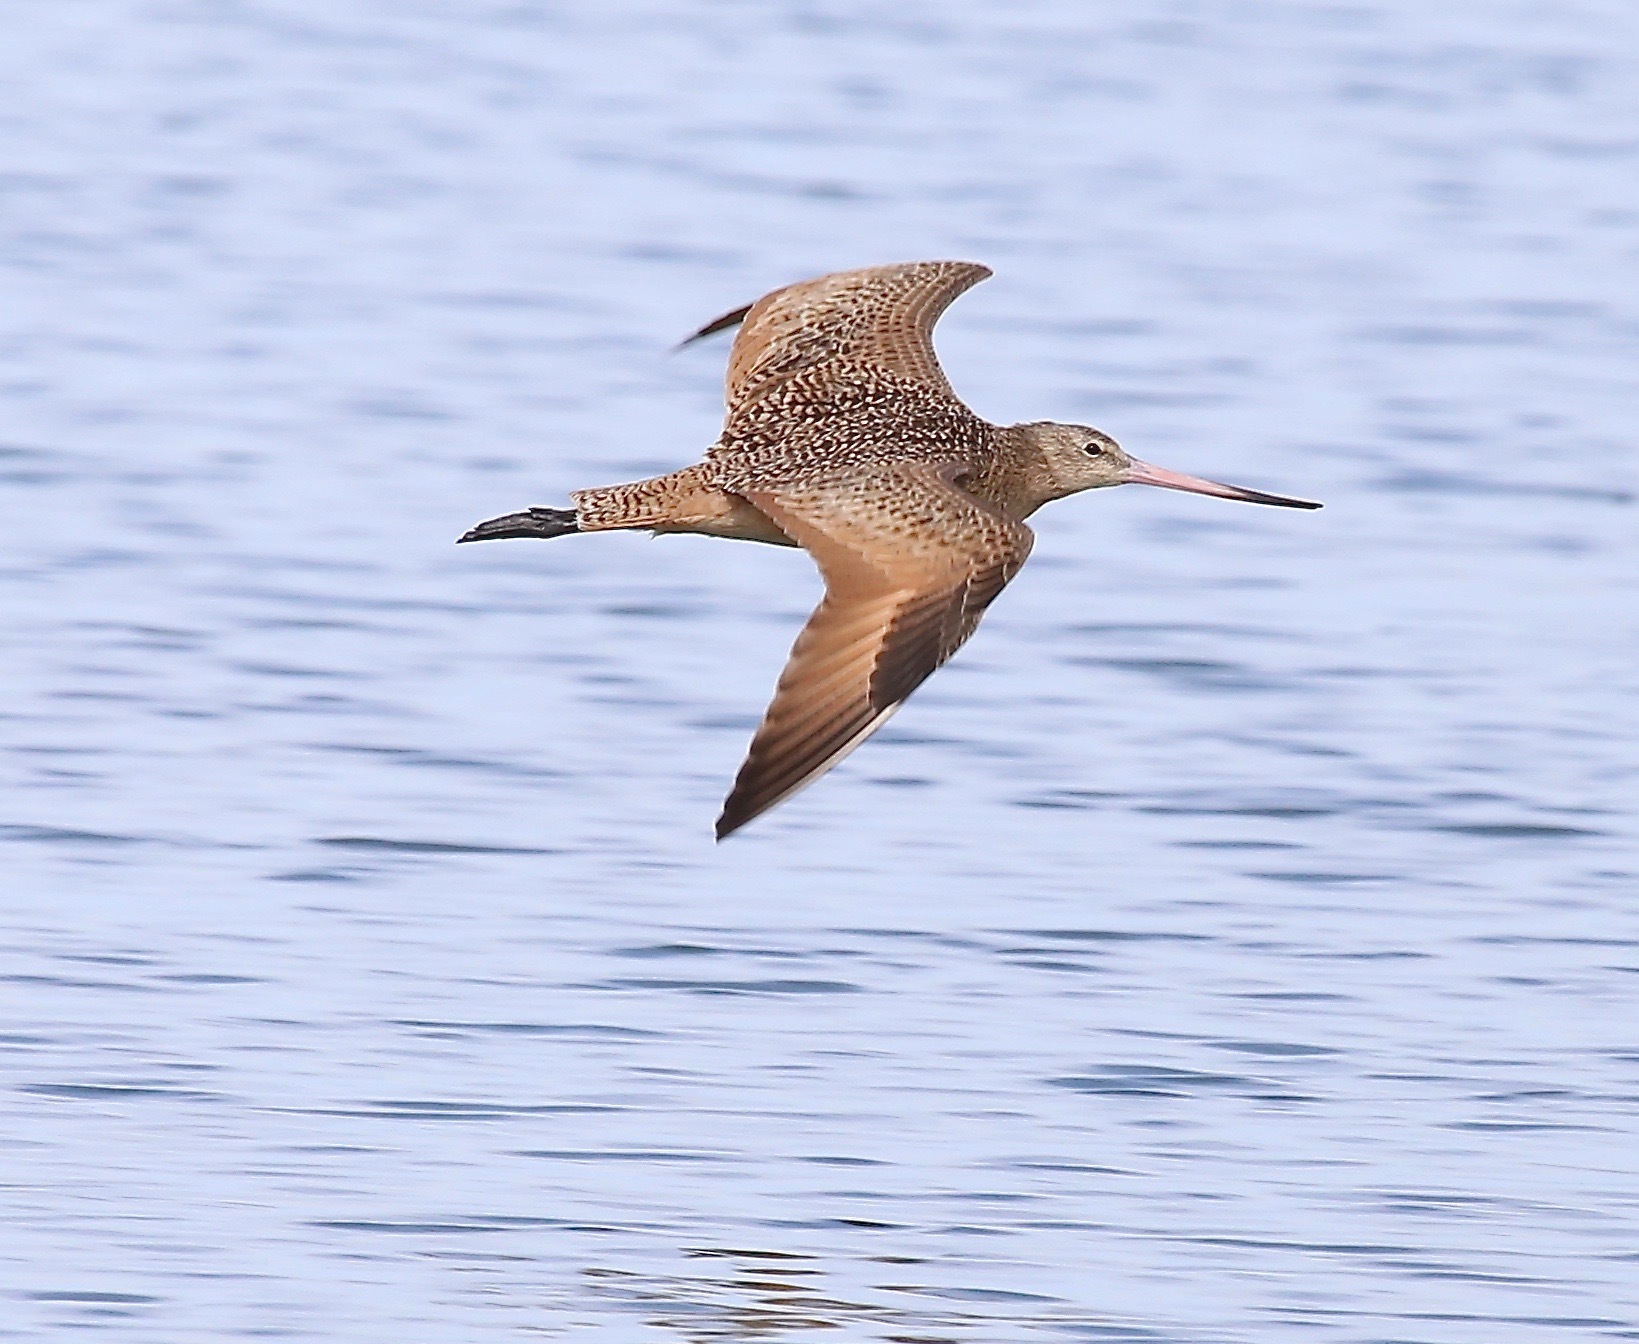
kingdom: Animalia
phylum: Chordata
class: Aves
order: Charadriiformes
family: Scolopacidae
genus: Limosa
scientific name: Limosa fedoa
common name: Marbled godwit
